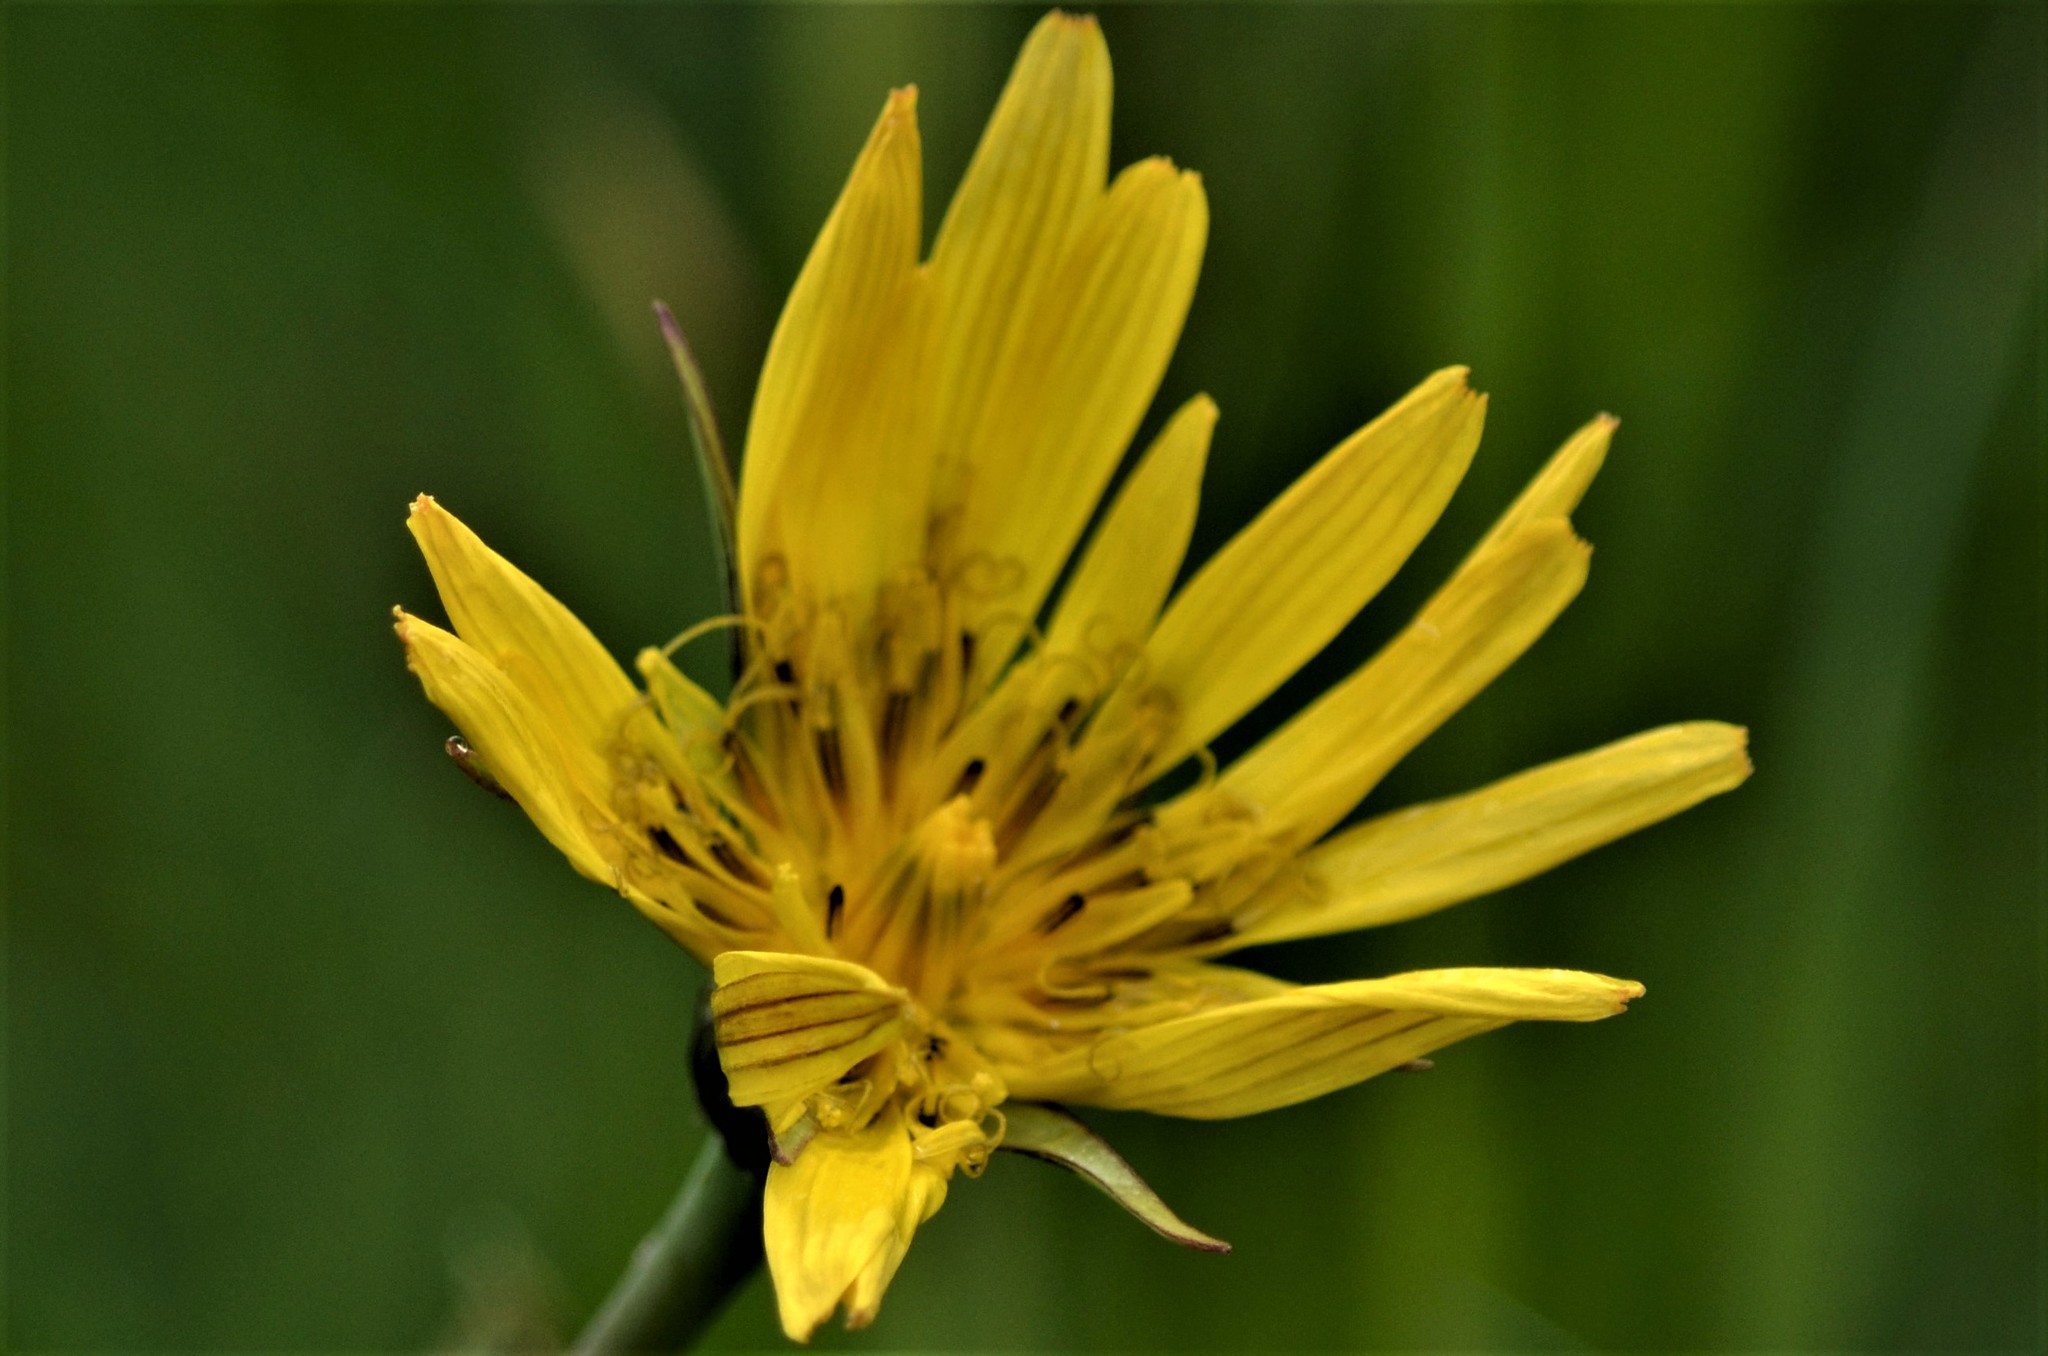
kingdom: Plantae
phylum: Tracheophyta
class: Magnoliopsida
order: Asterales
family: Asteraceae
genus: Tragopogon
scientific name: Tragopogon orientalis
